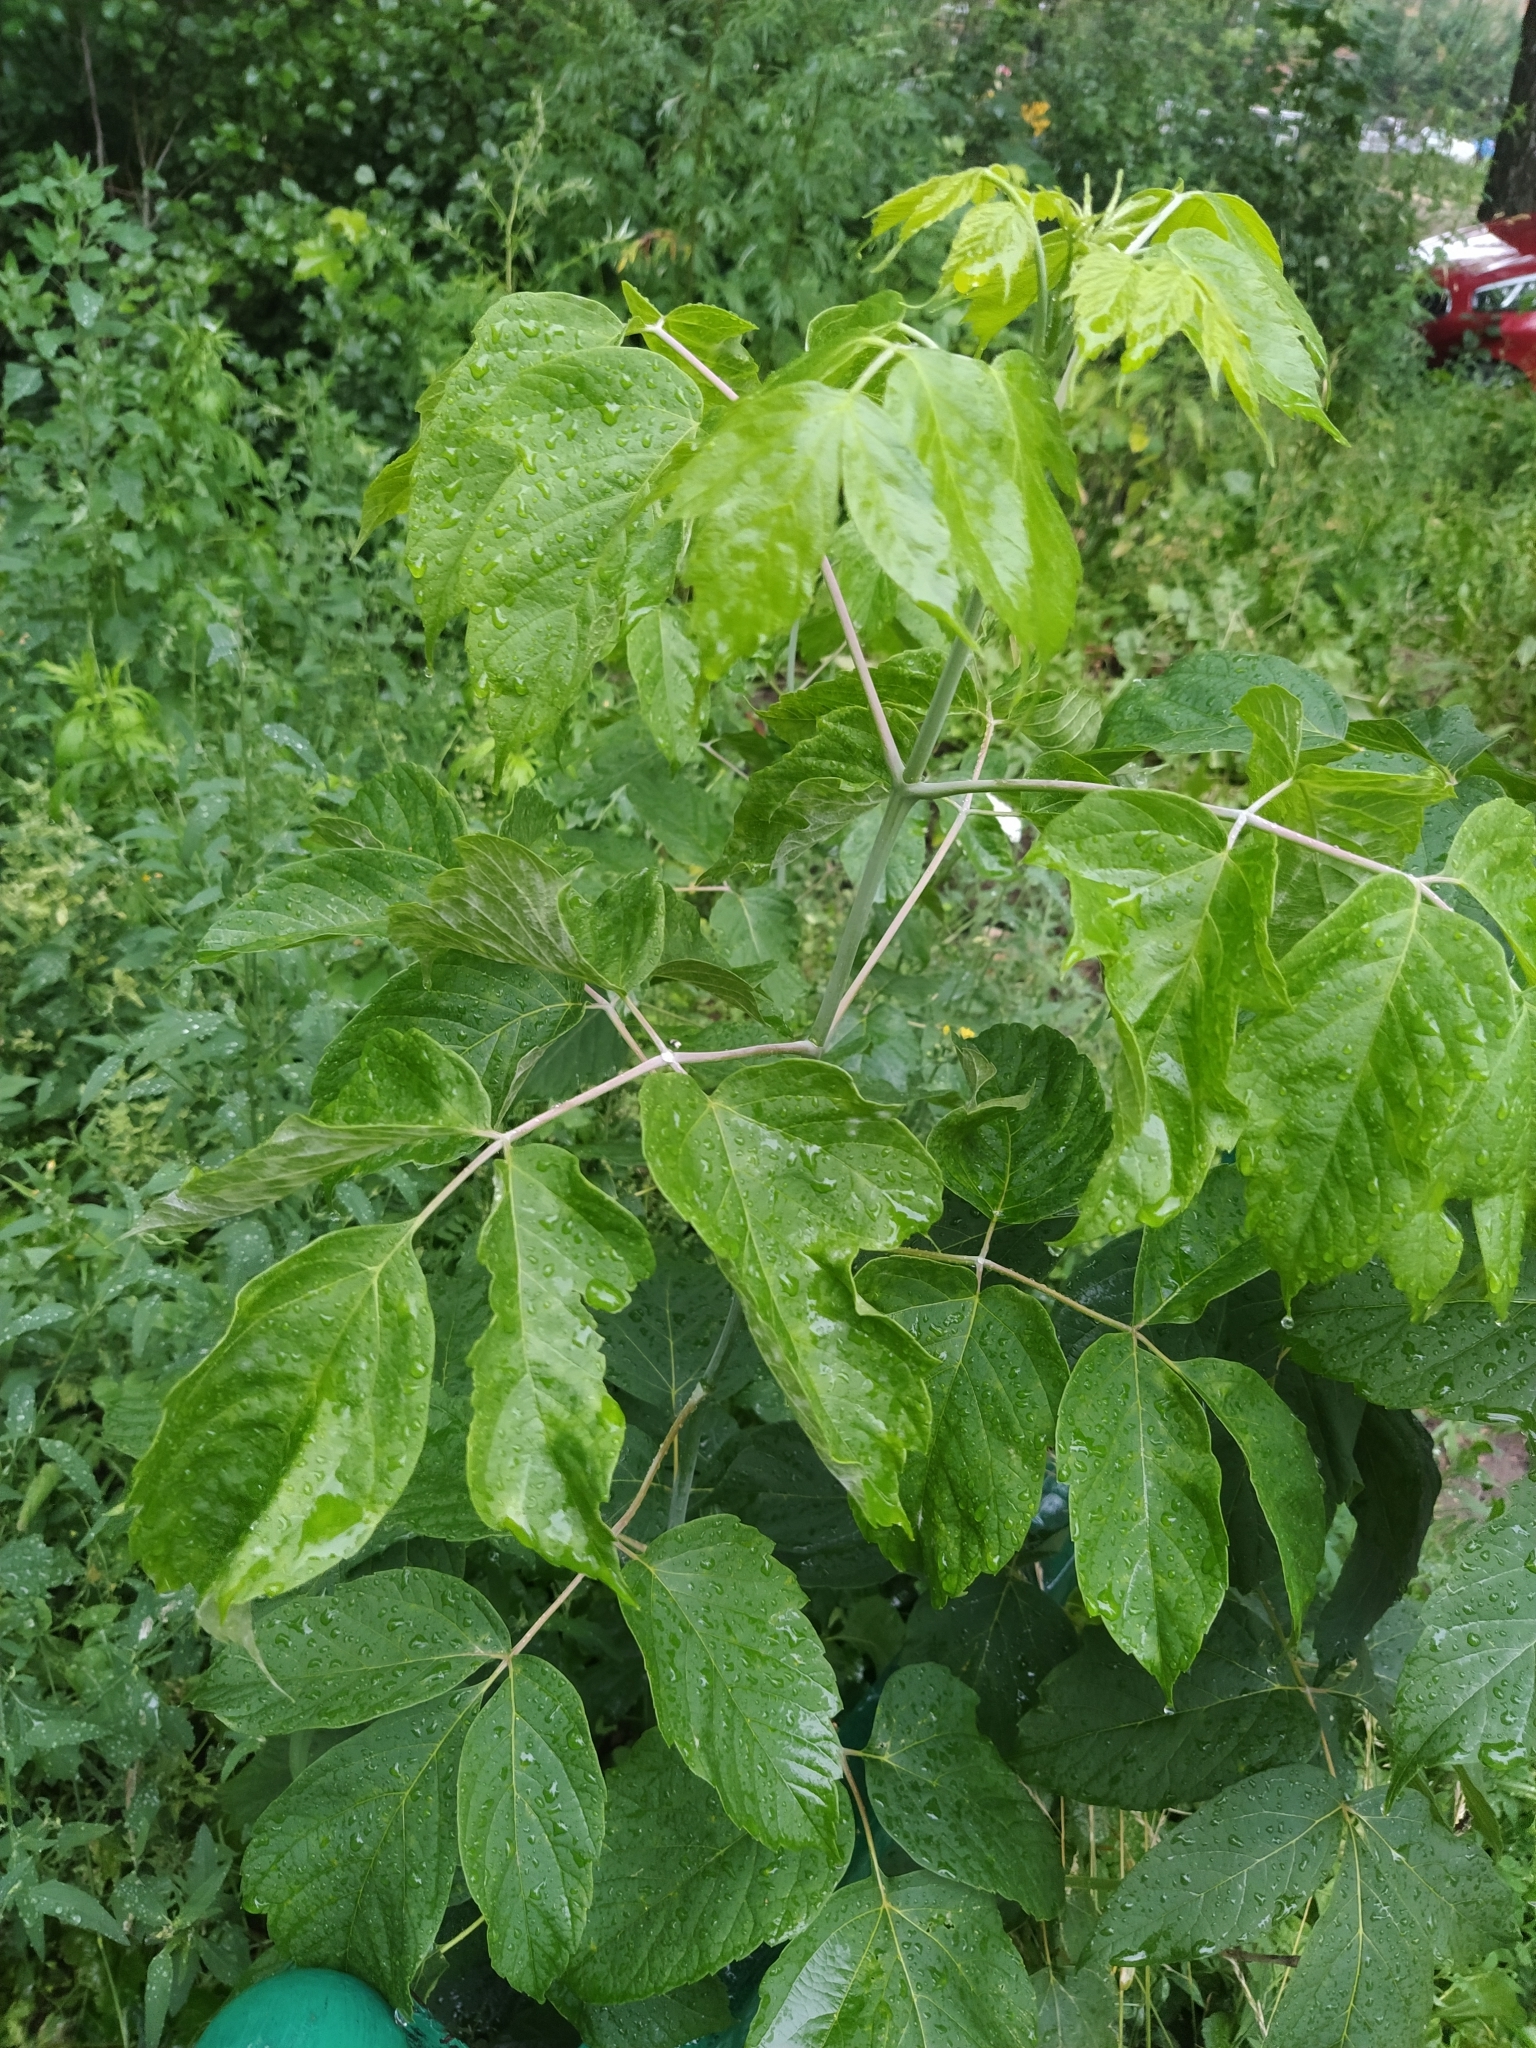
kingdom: Plantae
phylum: Tracheophyta
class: Magnoliopsida
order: Sapindales
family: Sapindaceae
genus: Acer
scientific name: Acer negundo
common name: Ashleaf maple
